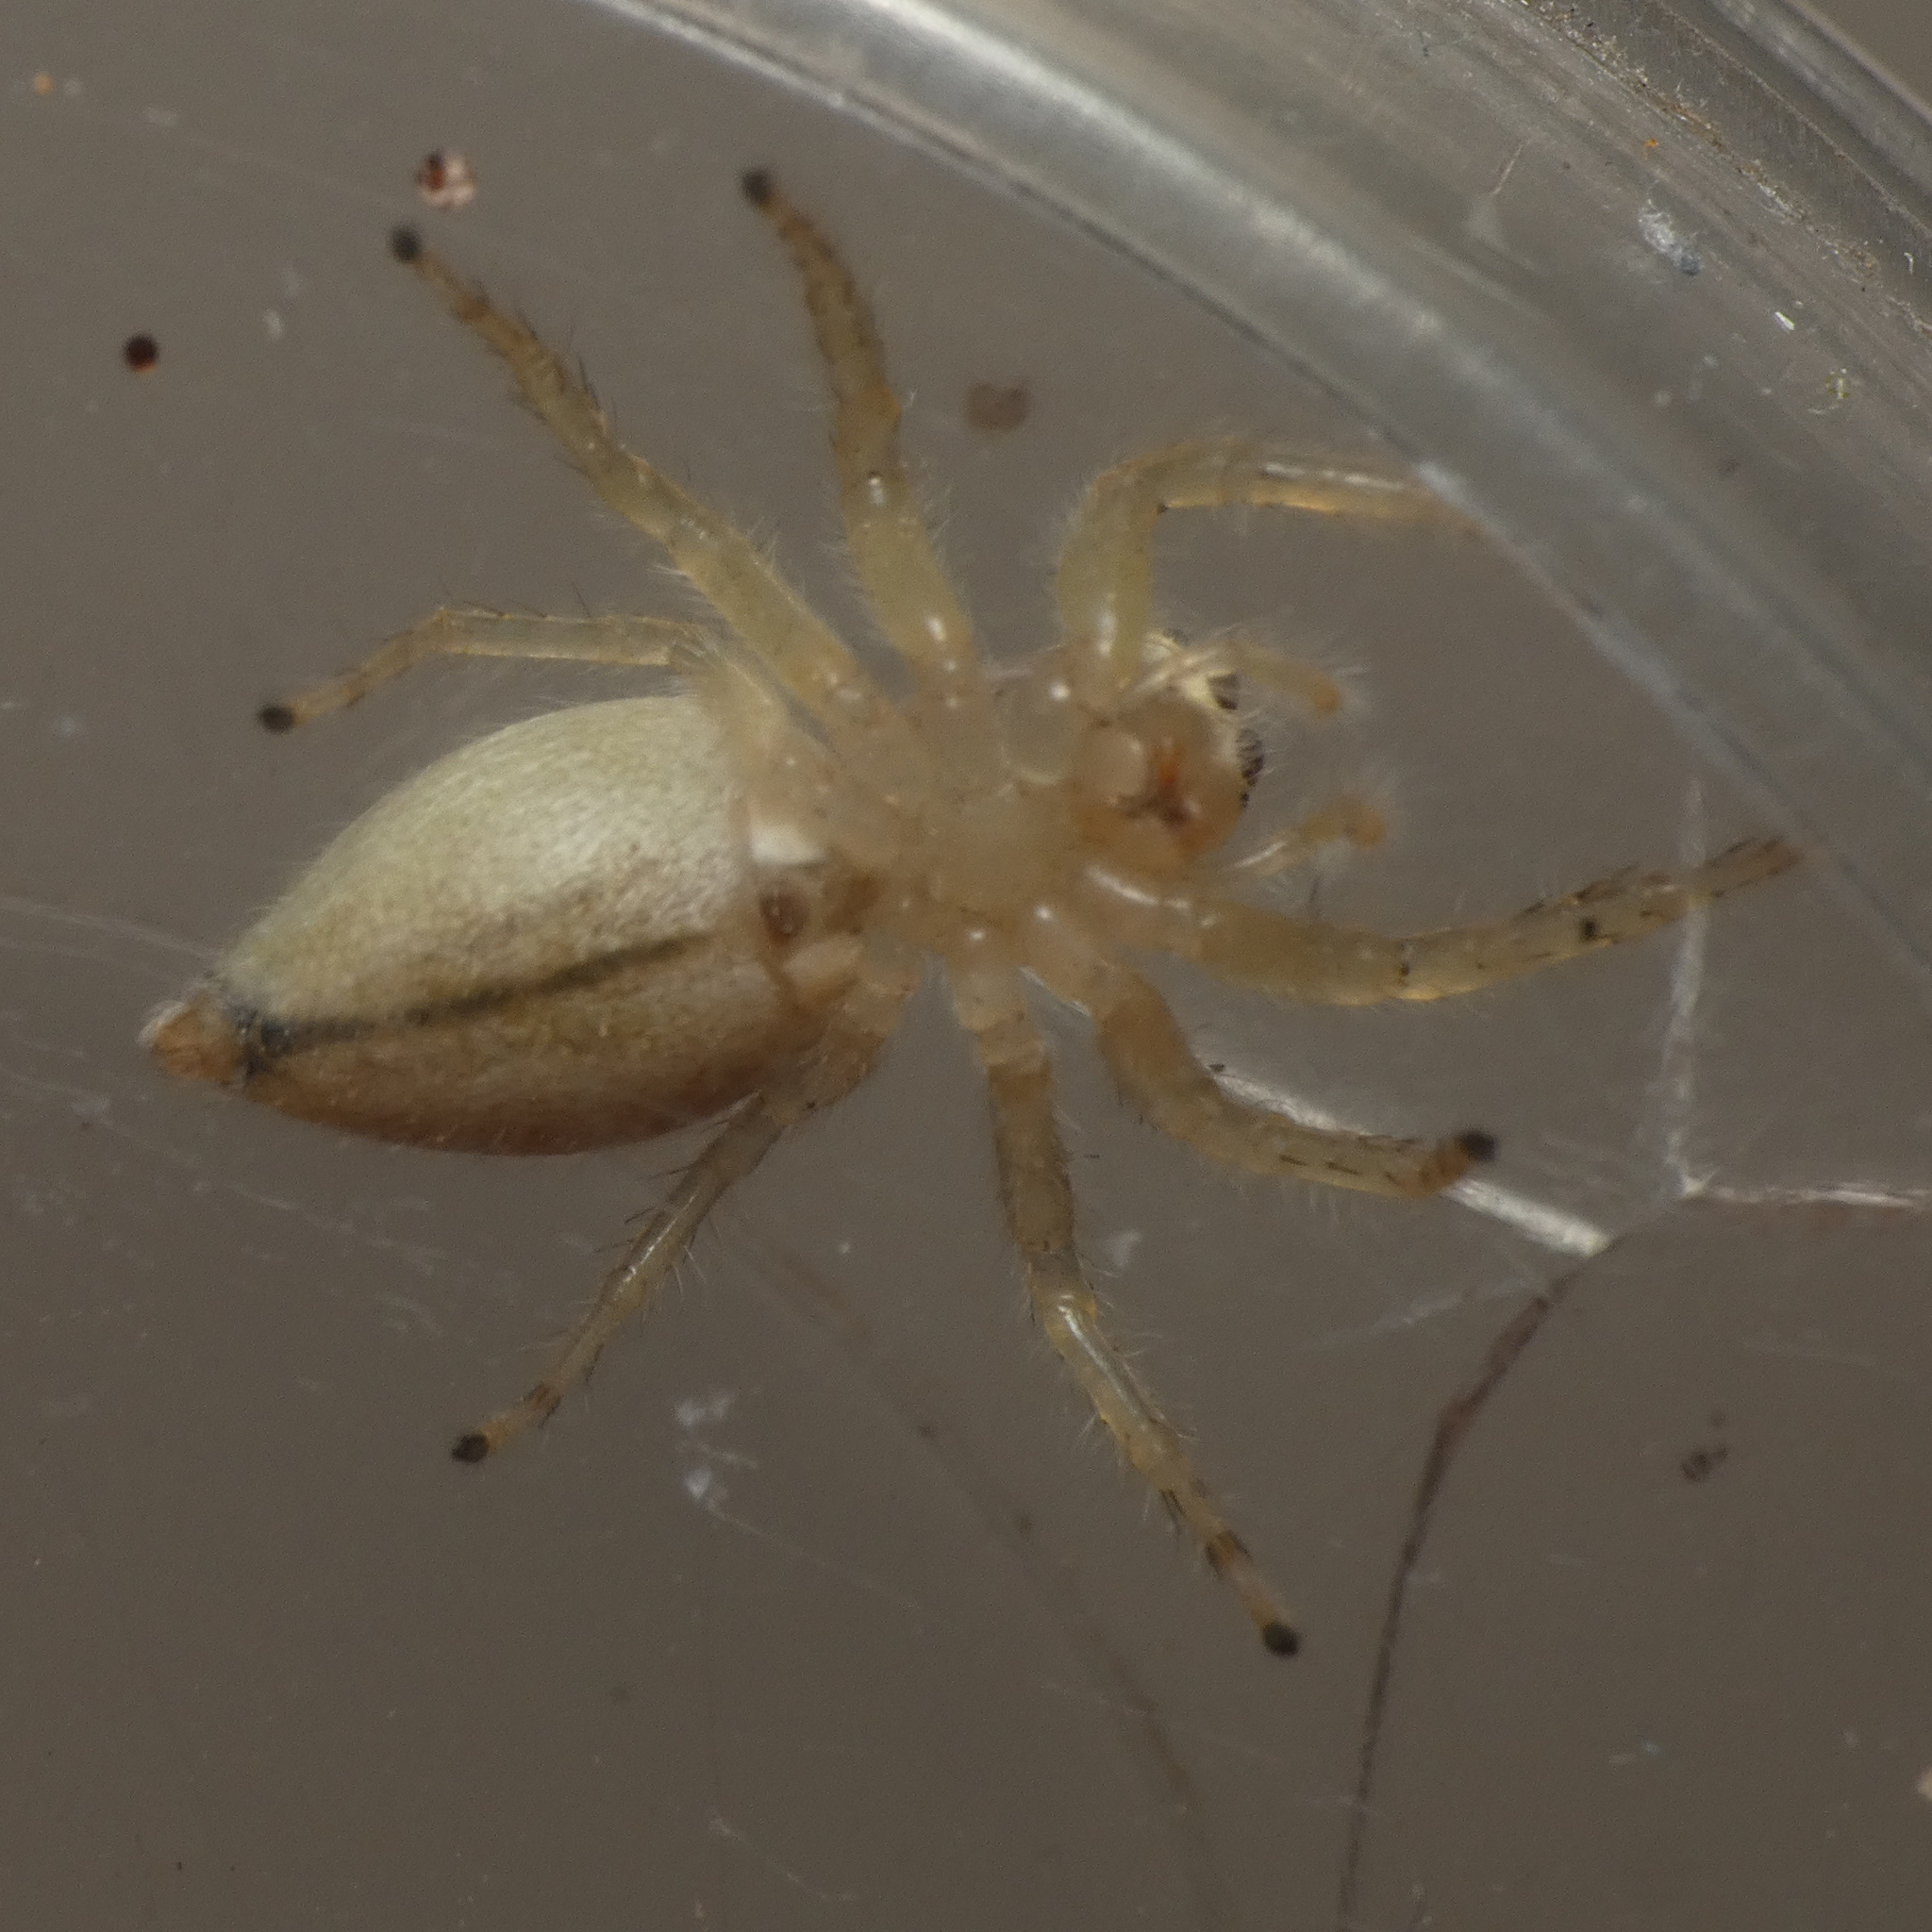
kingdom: Animalia
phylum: Arthropoda
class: Arachnida
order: Araneae
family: Salticidae
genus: Brancus
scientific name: Brancus mustelus
